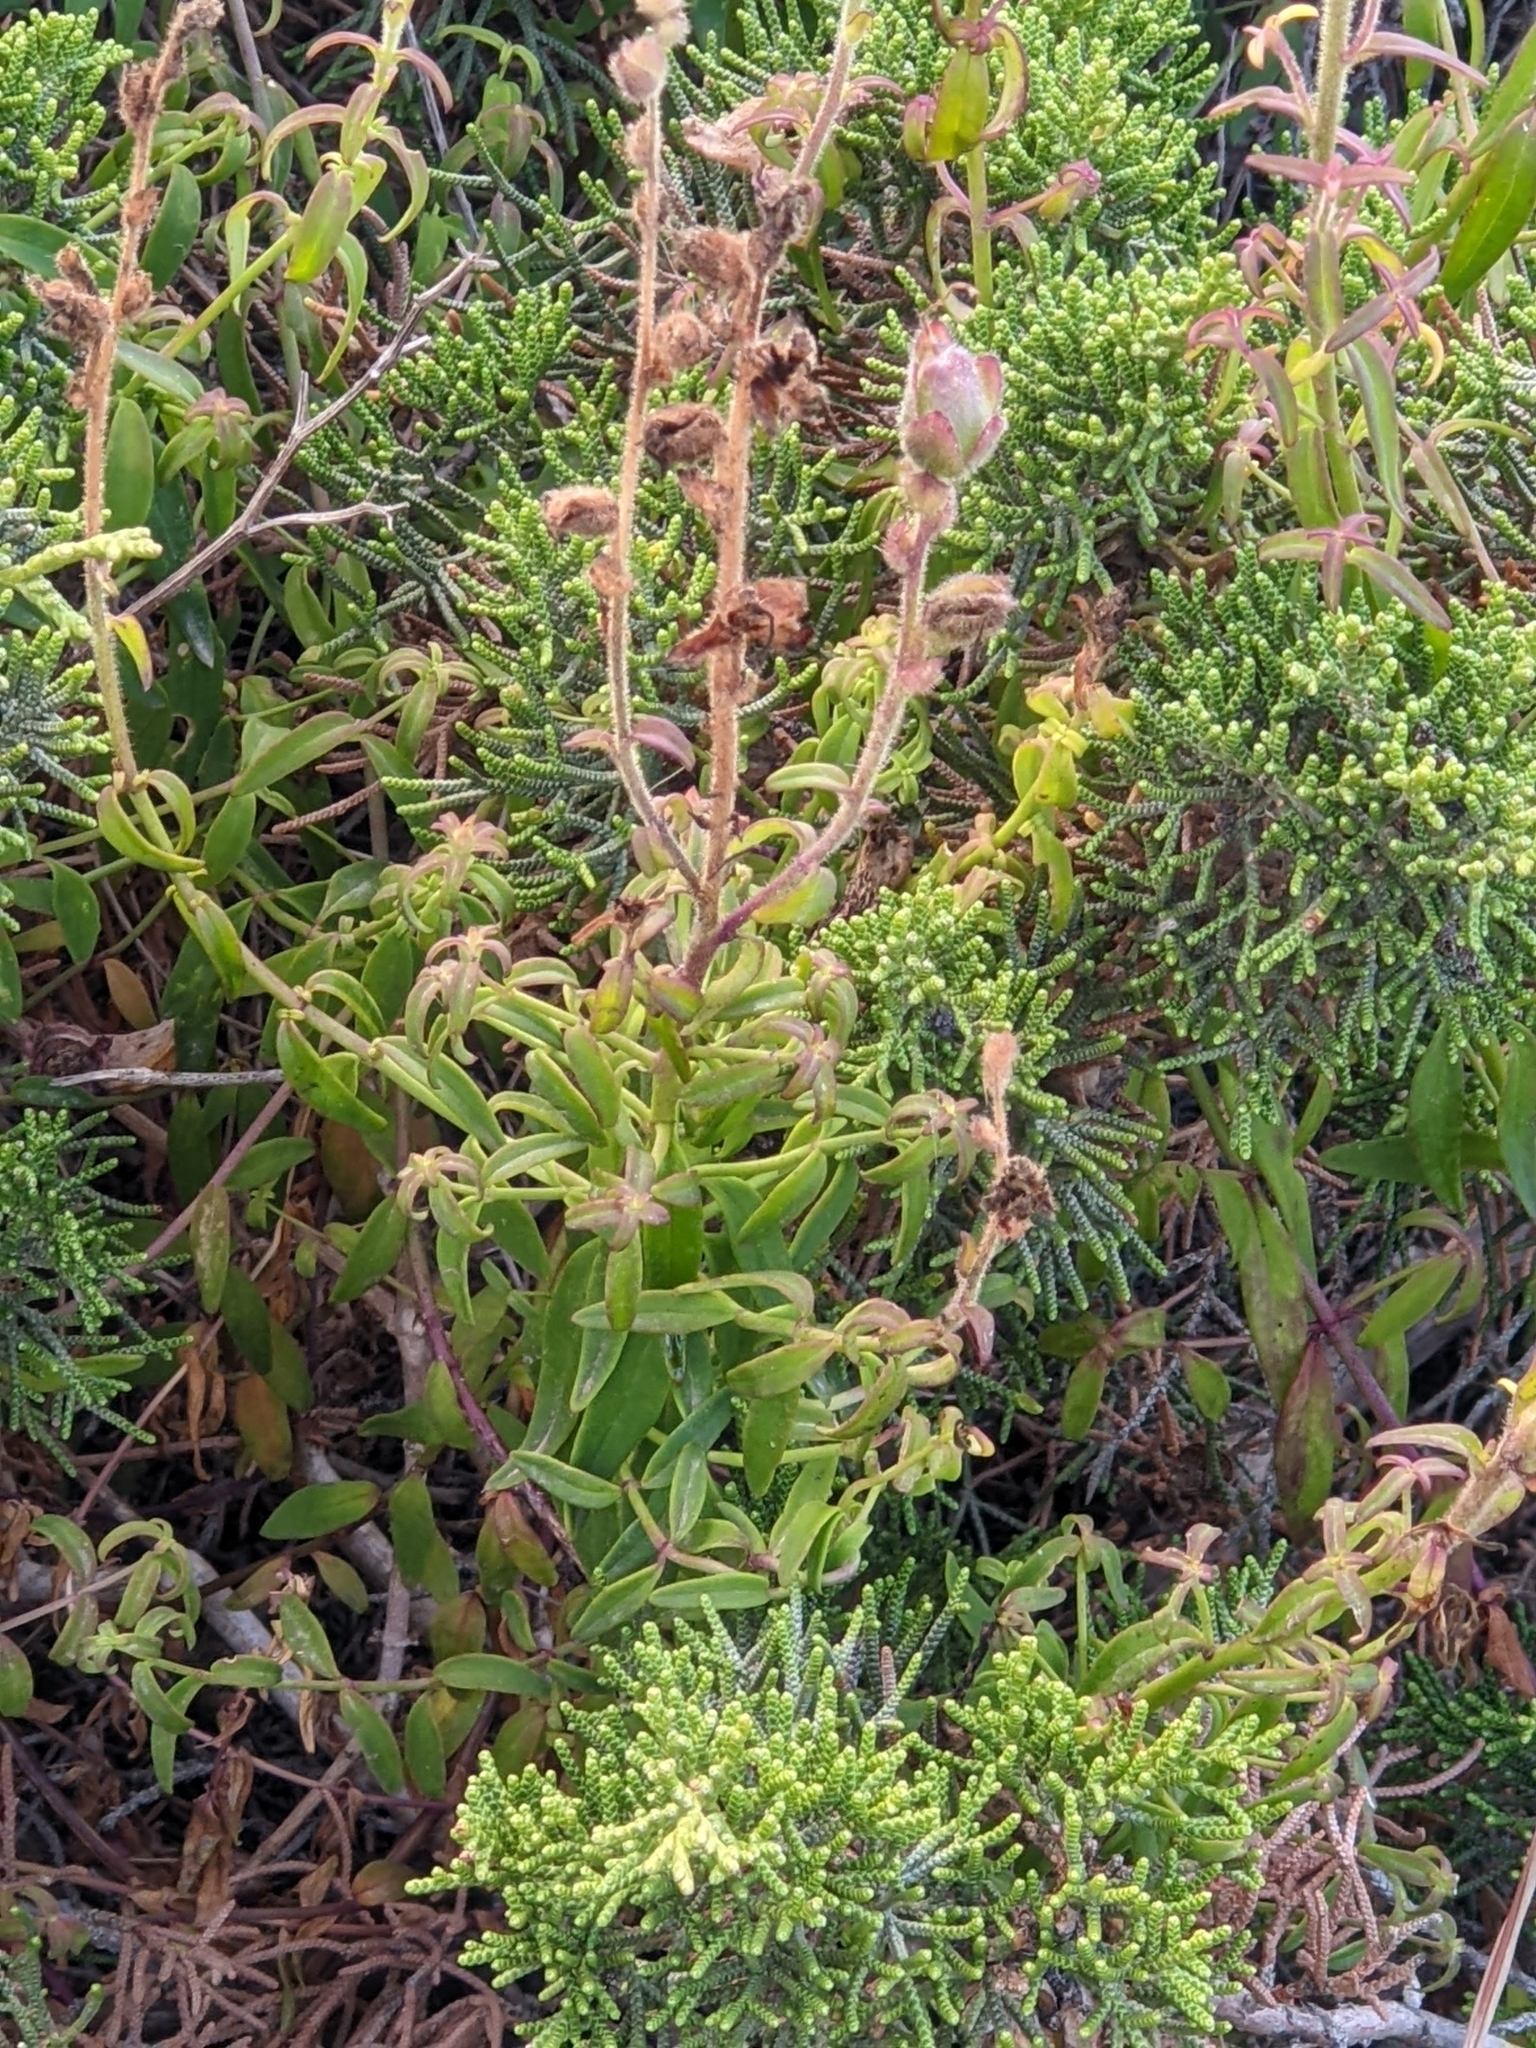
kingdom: Plantae
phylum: Tracheophyta
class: Magnoliopsida
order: Lamiales
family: Plantaginaceae
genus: Antirrhinum
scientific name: Antirrhinum cirrhigerum
